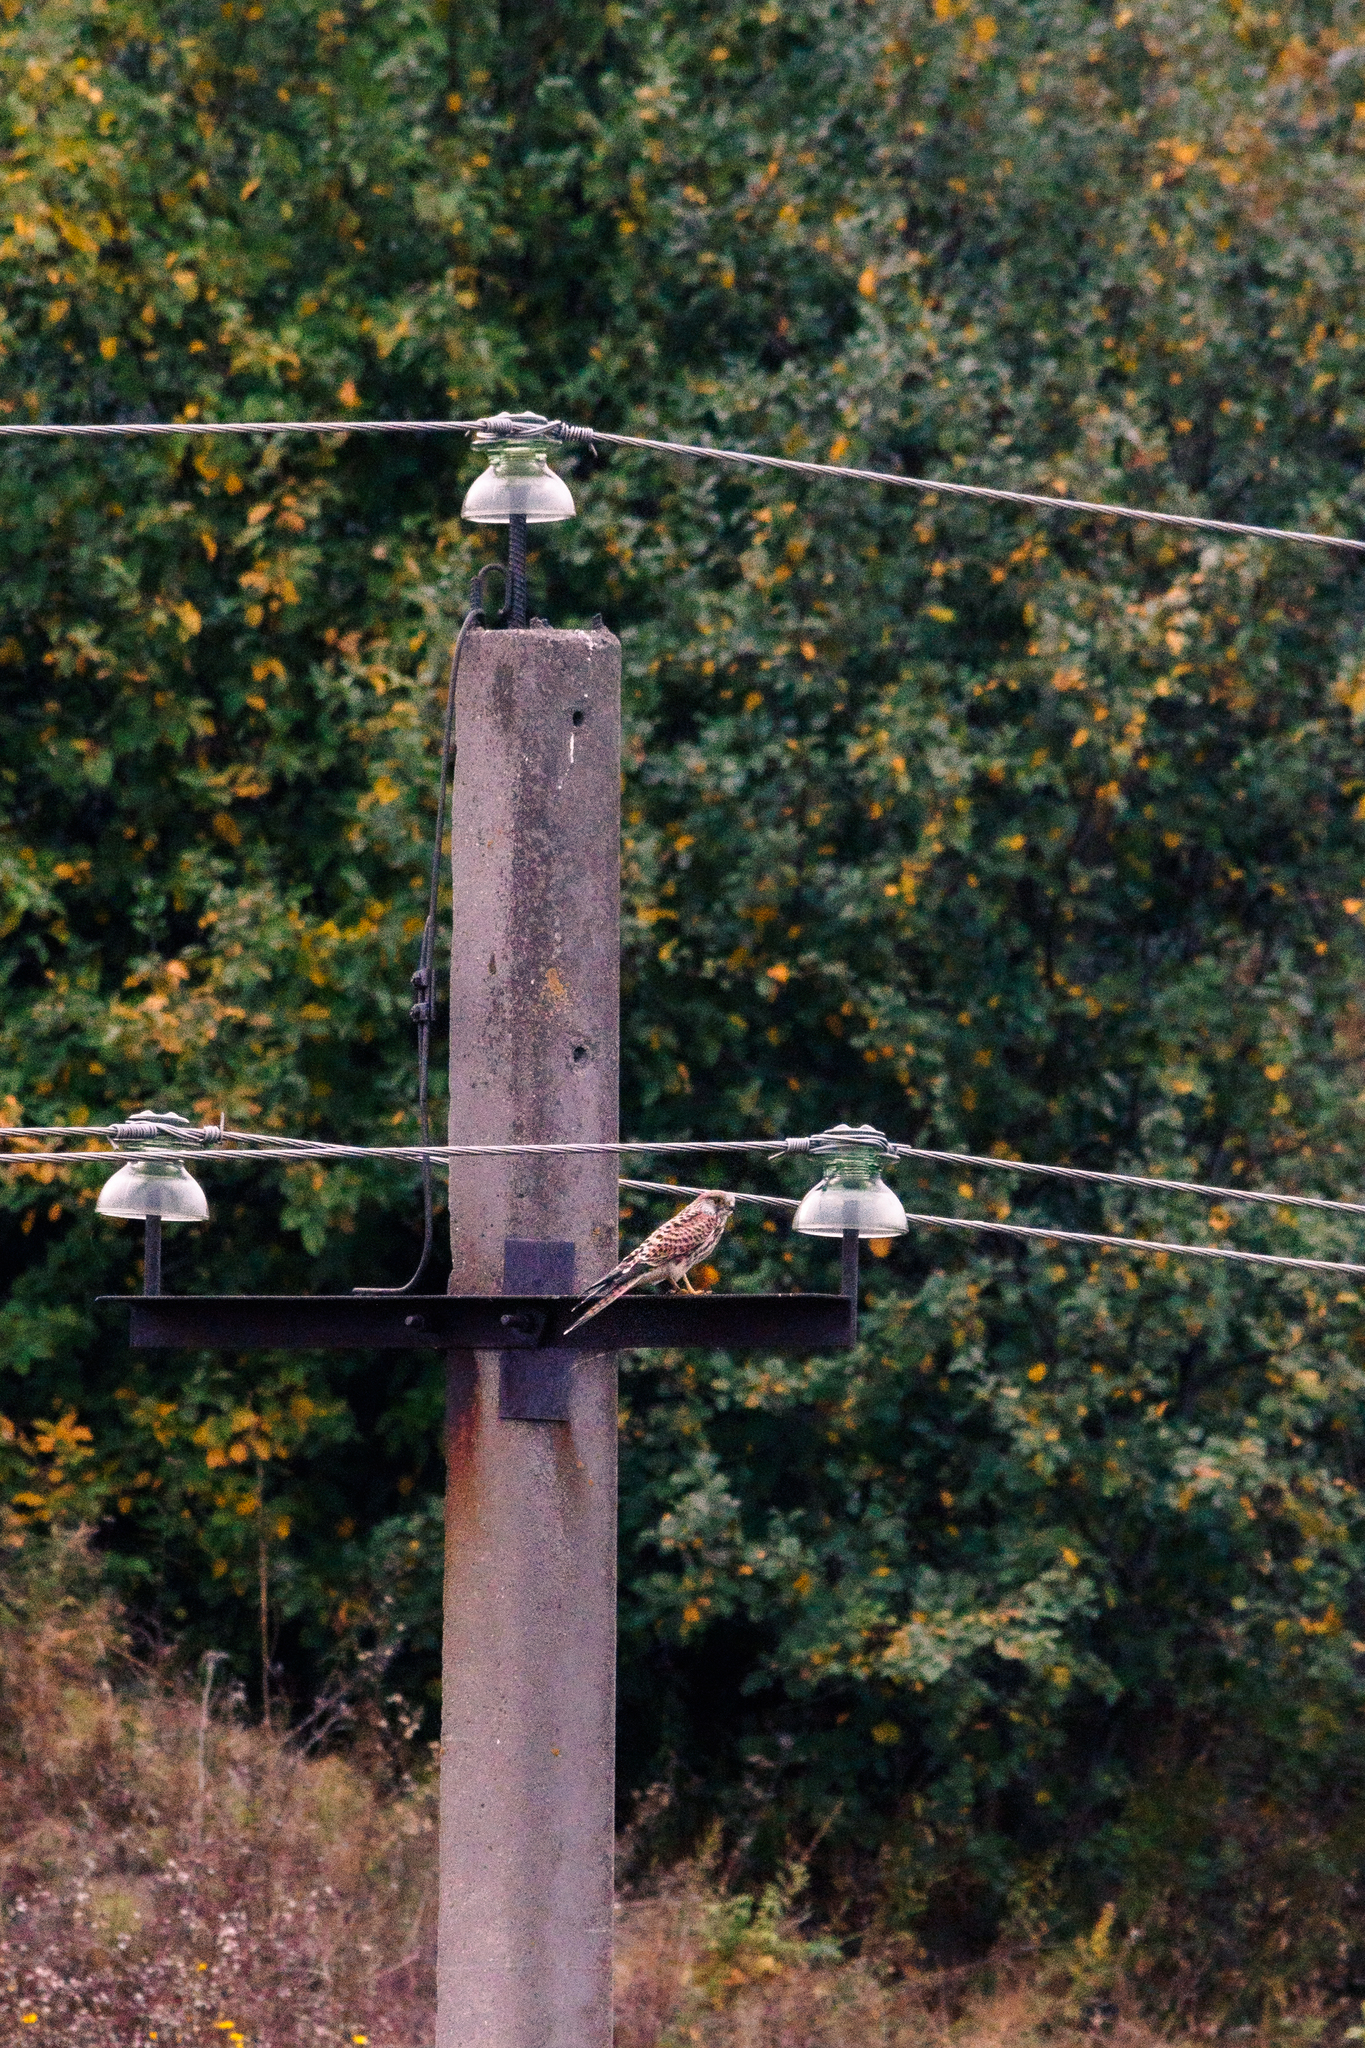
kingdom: Animalia
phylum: Chordata
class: Aves
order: Falconiformes
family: Falconidae
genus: Falco
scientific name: Falco tinnunculus
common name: Common kestrel
